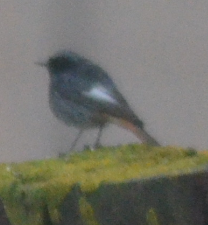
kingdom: Animalia
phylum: Chordata
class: Aves
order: Passeriformes
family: Muscicapidae
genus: Phoenicurus
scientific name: Phoenicurus ochruros
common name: Black redstart
